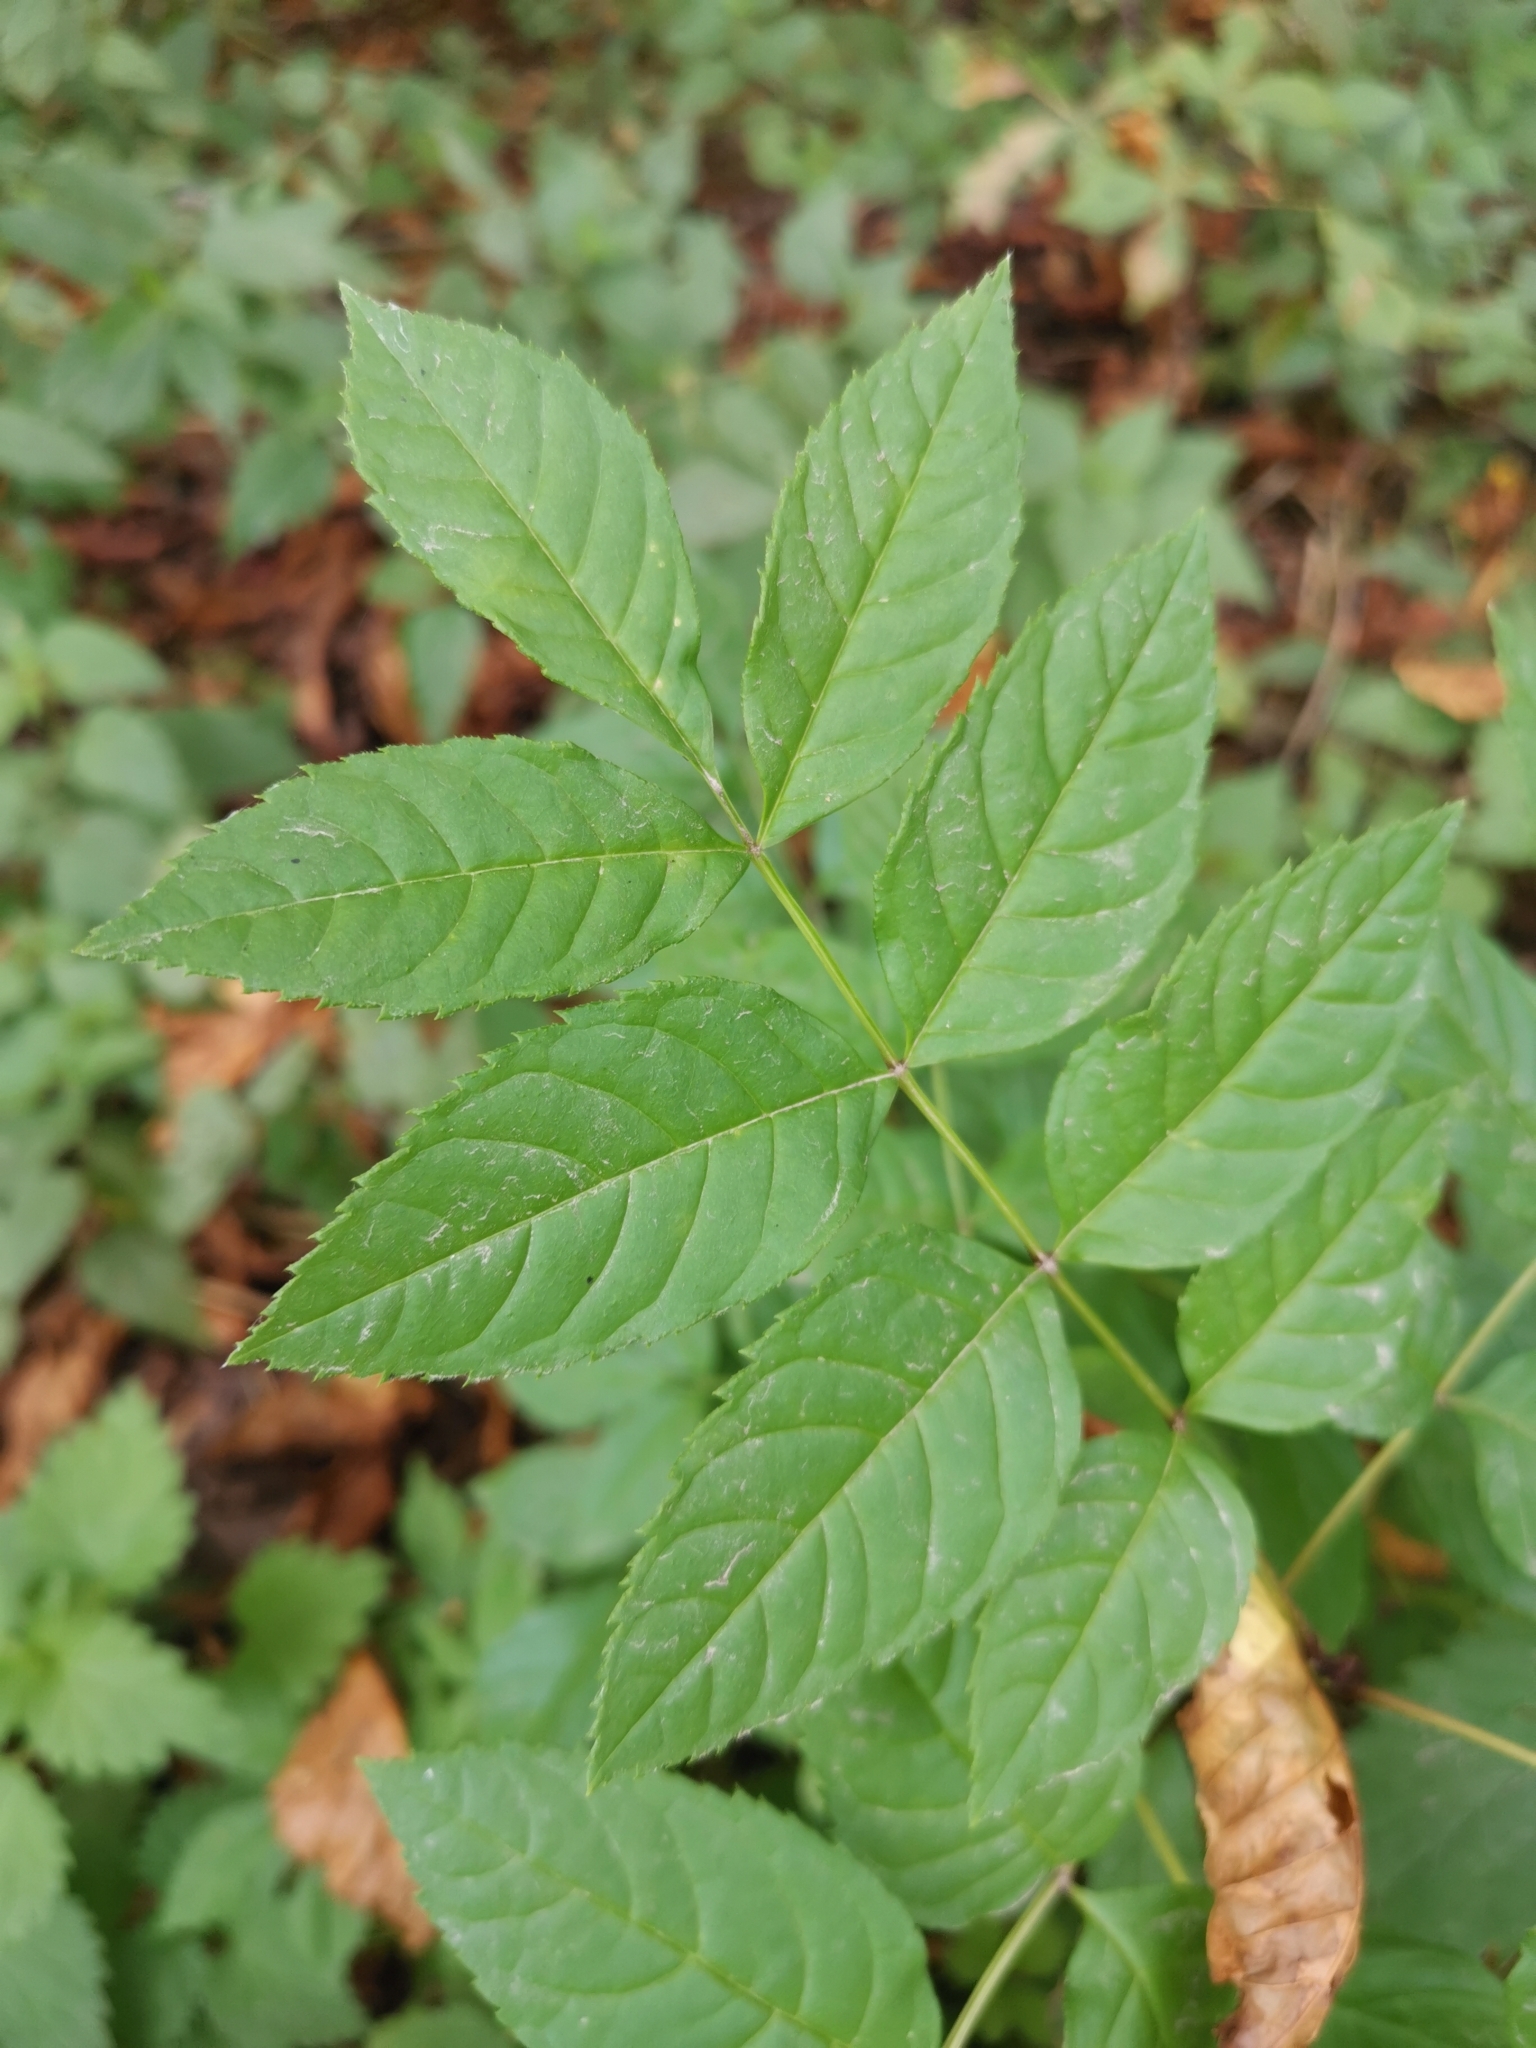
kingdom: Plantae
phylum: Tracheophyta
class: Magnoliopsida
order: Lamiales
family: Oleaceae
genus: Fraxinus
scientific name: Fraxinus excelsior
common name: European ash
